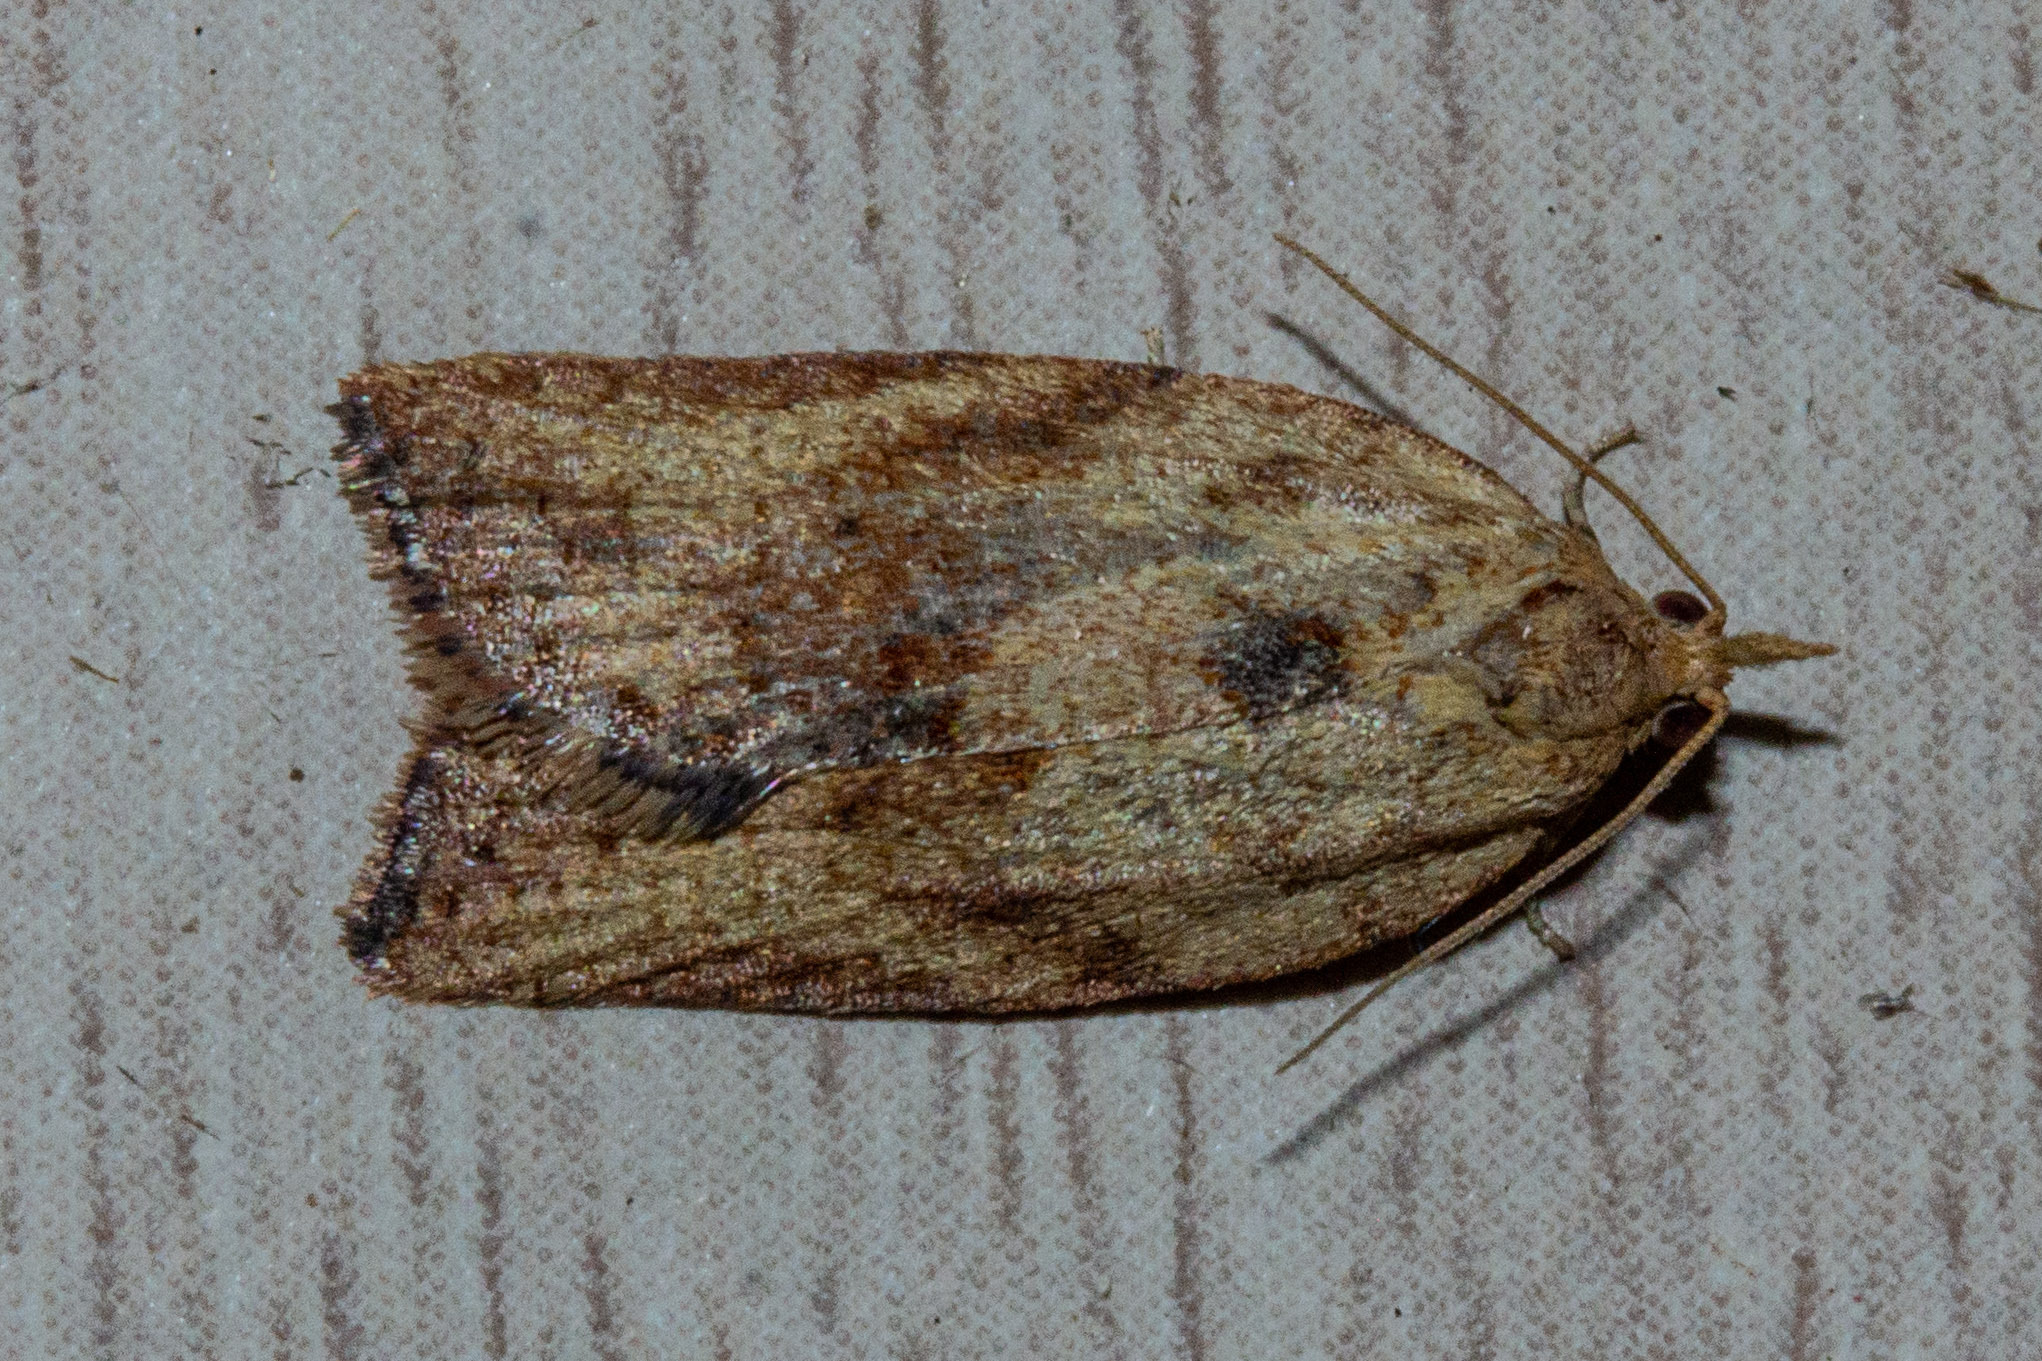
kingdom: Animalia
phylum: Arthropoda
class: Insecta
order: Lepidoptera
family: Tortricidae
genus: Epiphyas
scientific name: Epiphyas postvittana
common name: Light brown apple moth
